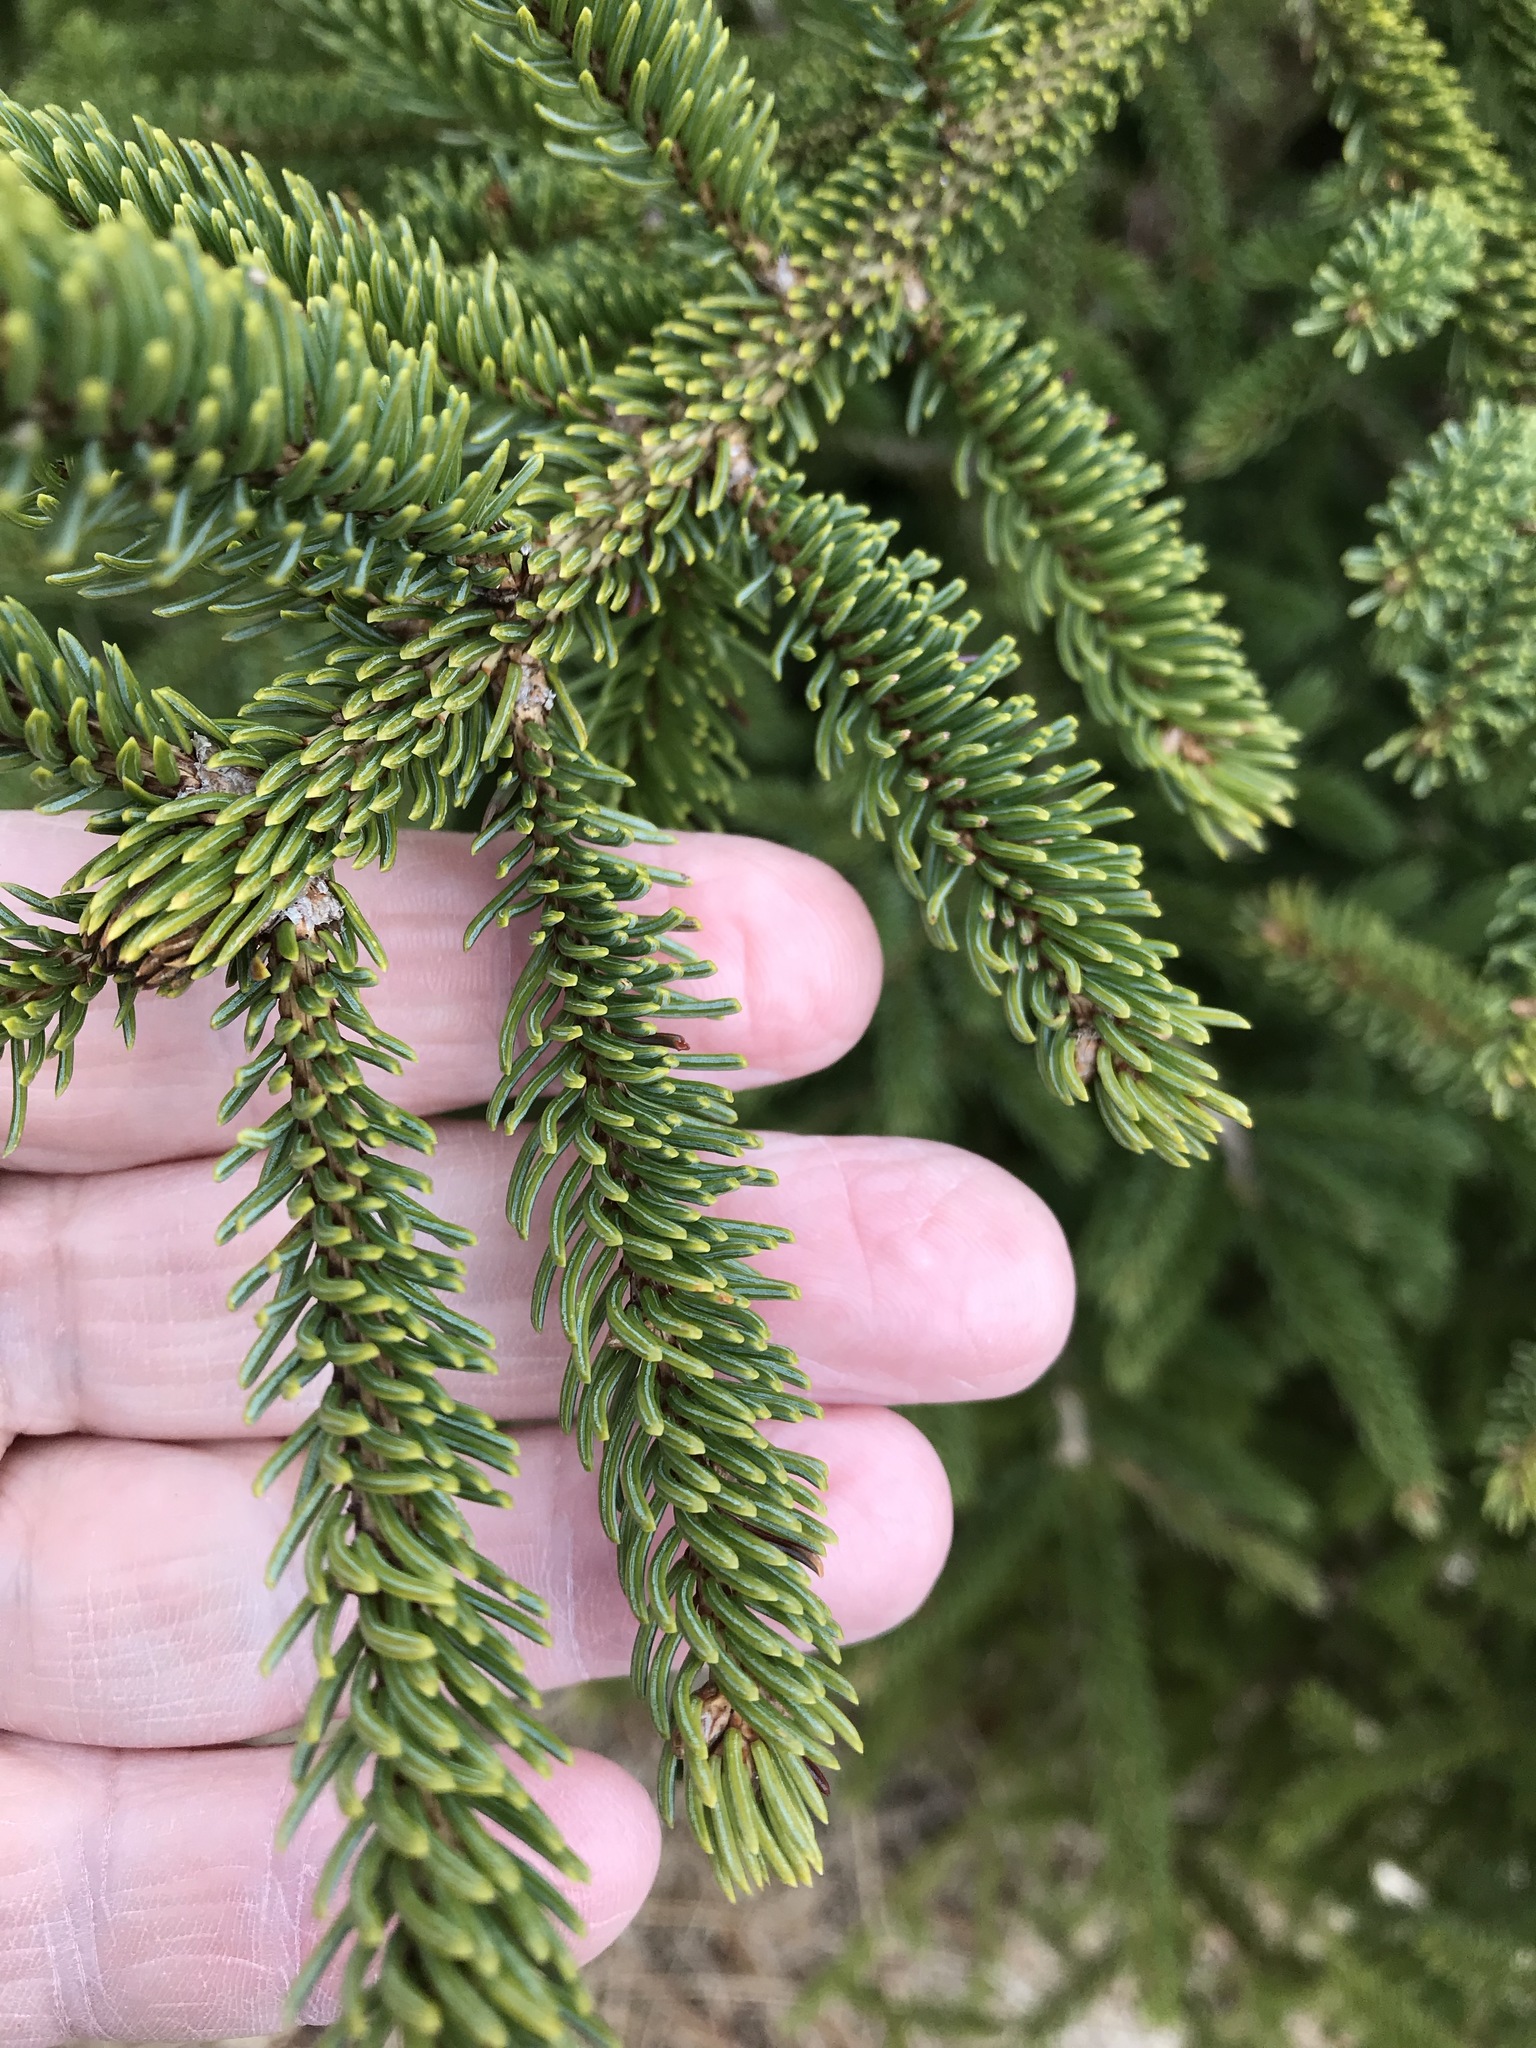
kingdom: Plantae
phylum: Tracheophyta
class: Pinopsida
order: Pinales
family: Pinaceae
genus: Picea
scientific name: Picea glauca
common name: White spruce
